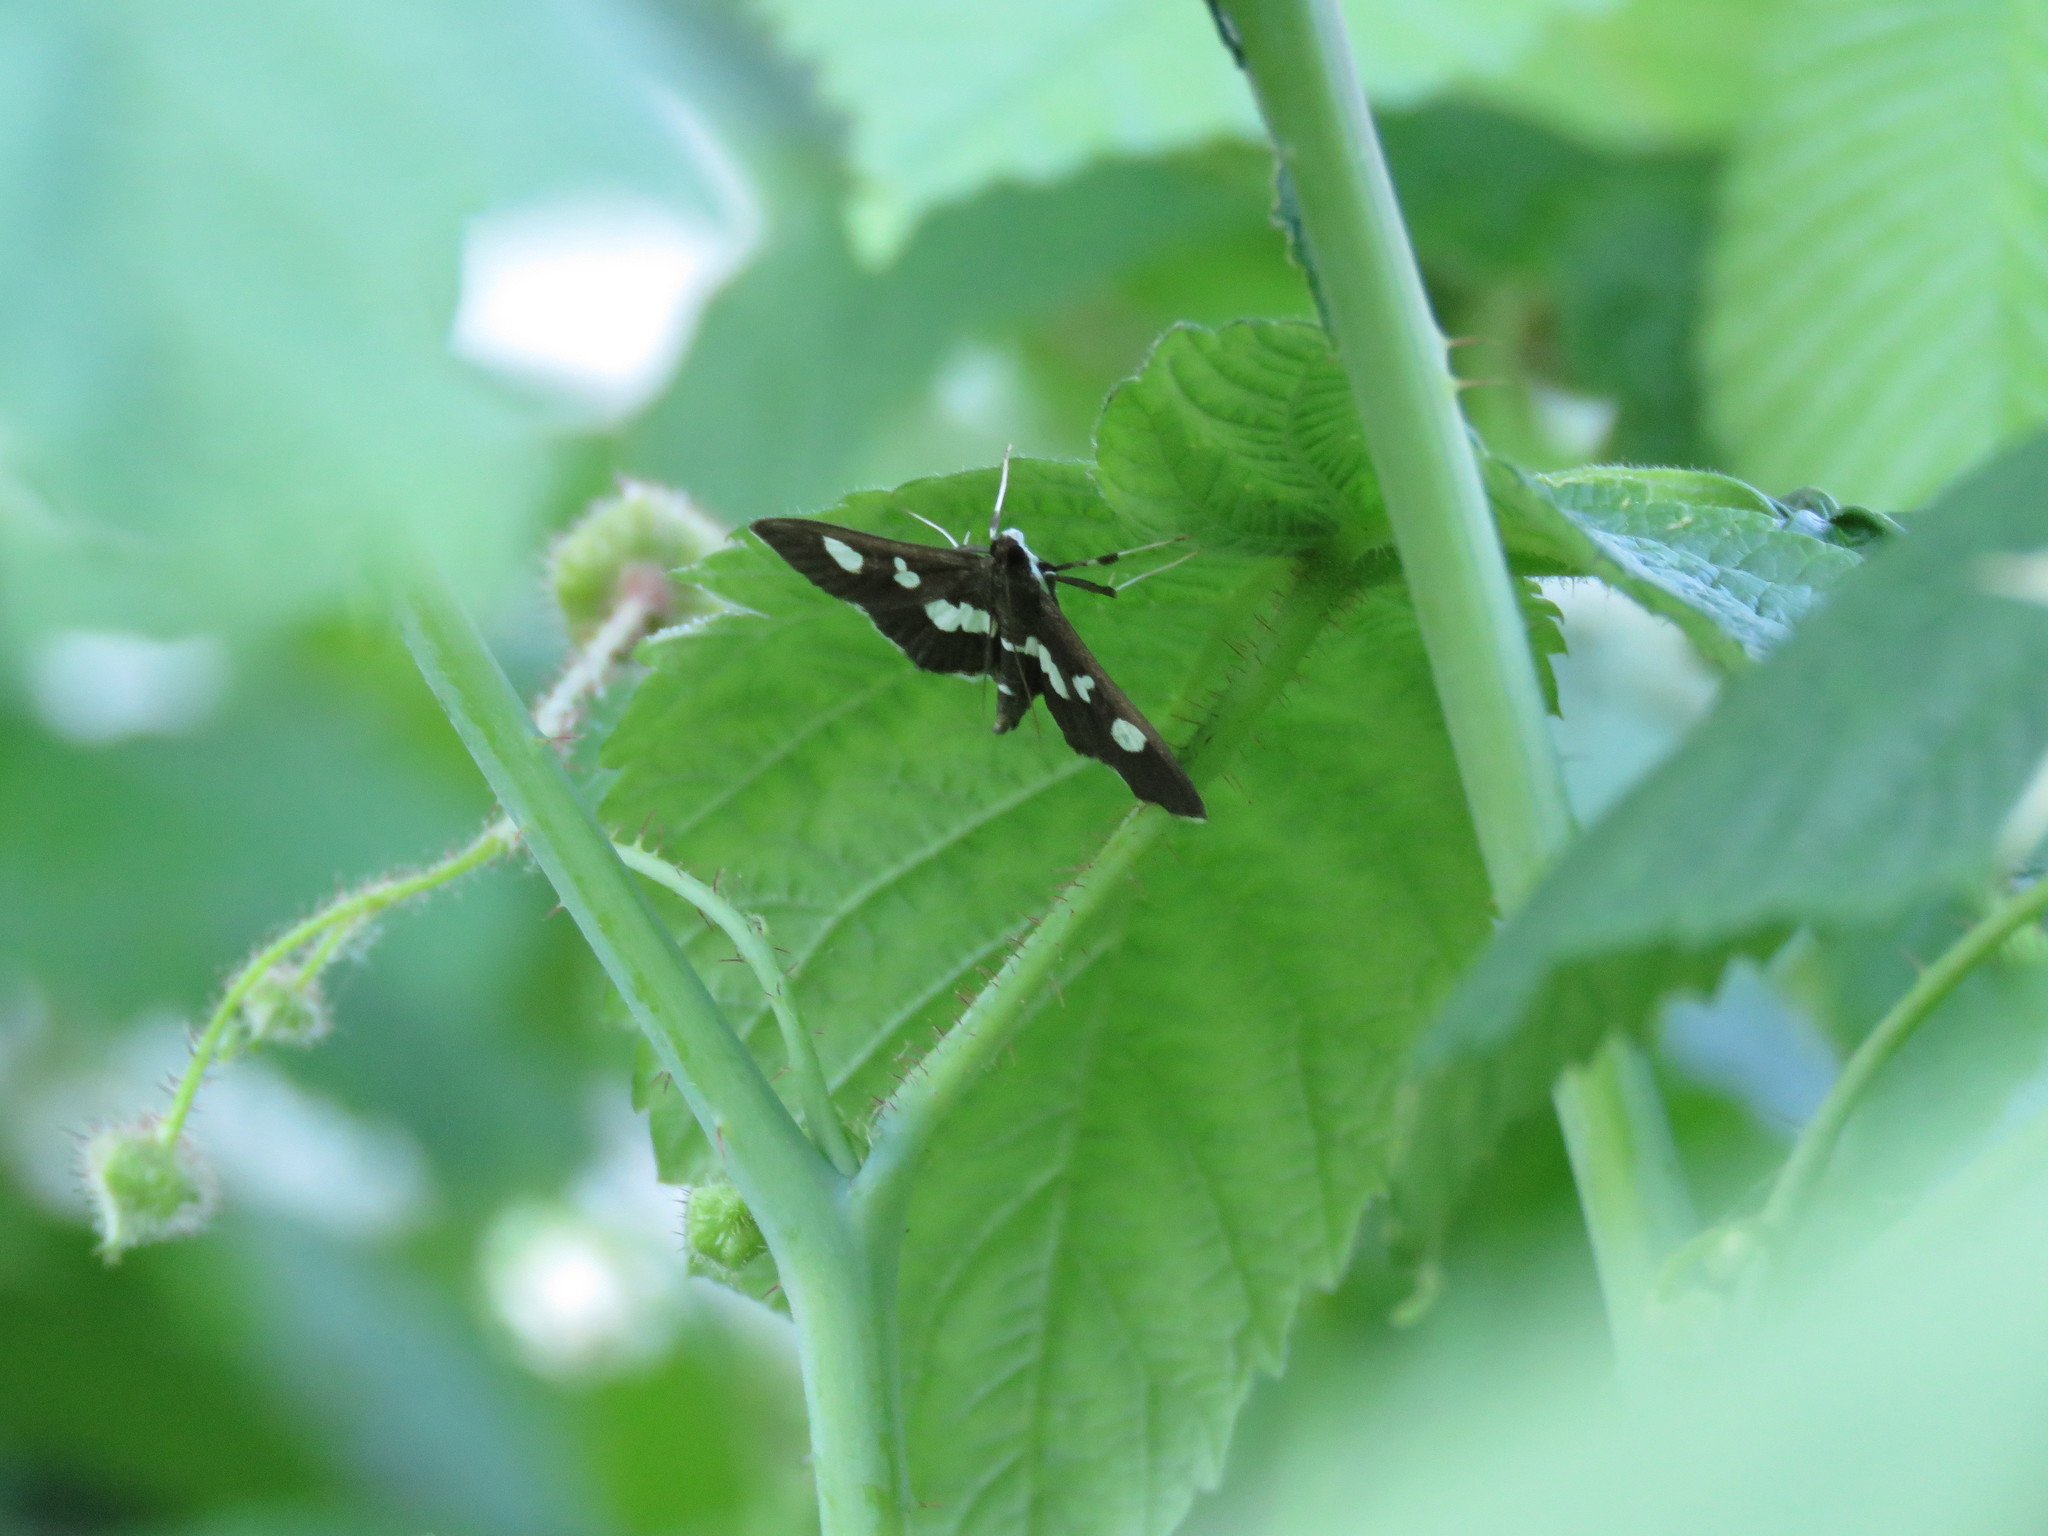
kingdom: Animalia
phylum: Arthropoda
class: Insecta
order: Lepidoptera
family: Crambidae
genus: Desmia
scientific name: Desmia
